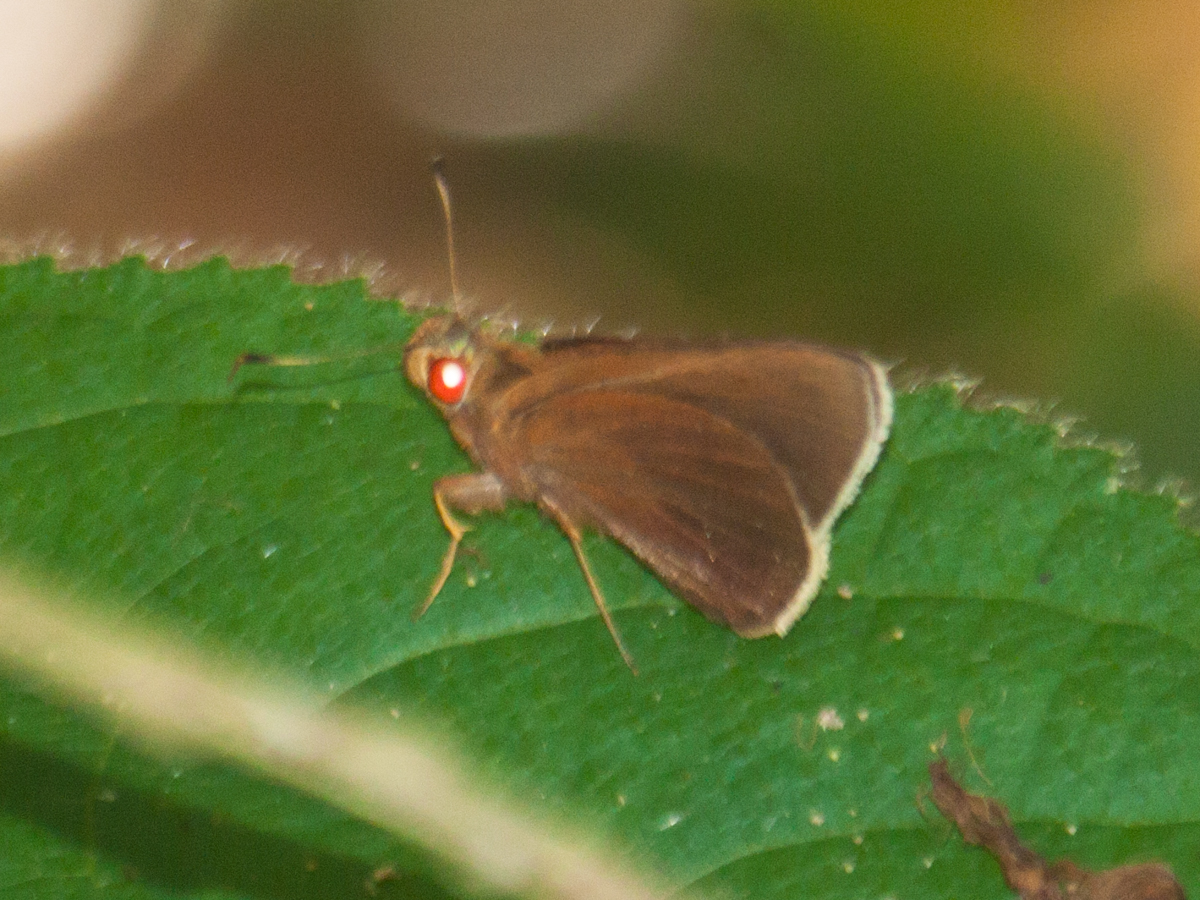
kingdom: Animalia
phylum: Arthropoda
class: Insecta
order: Lepidoptera
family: Hesperiidae
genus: Matapa
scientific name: Matapa aria
